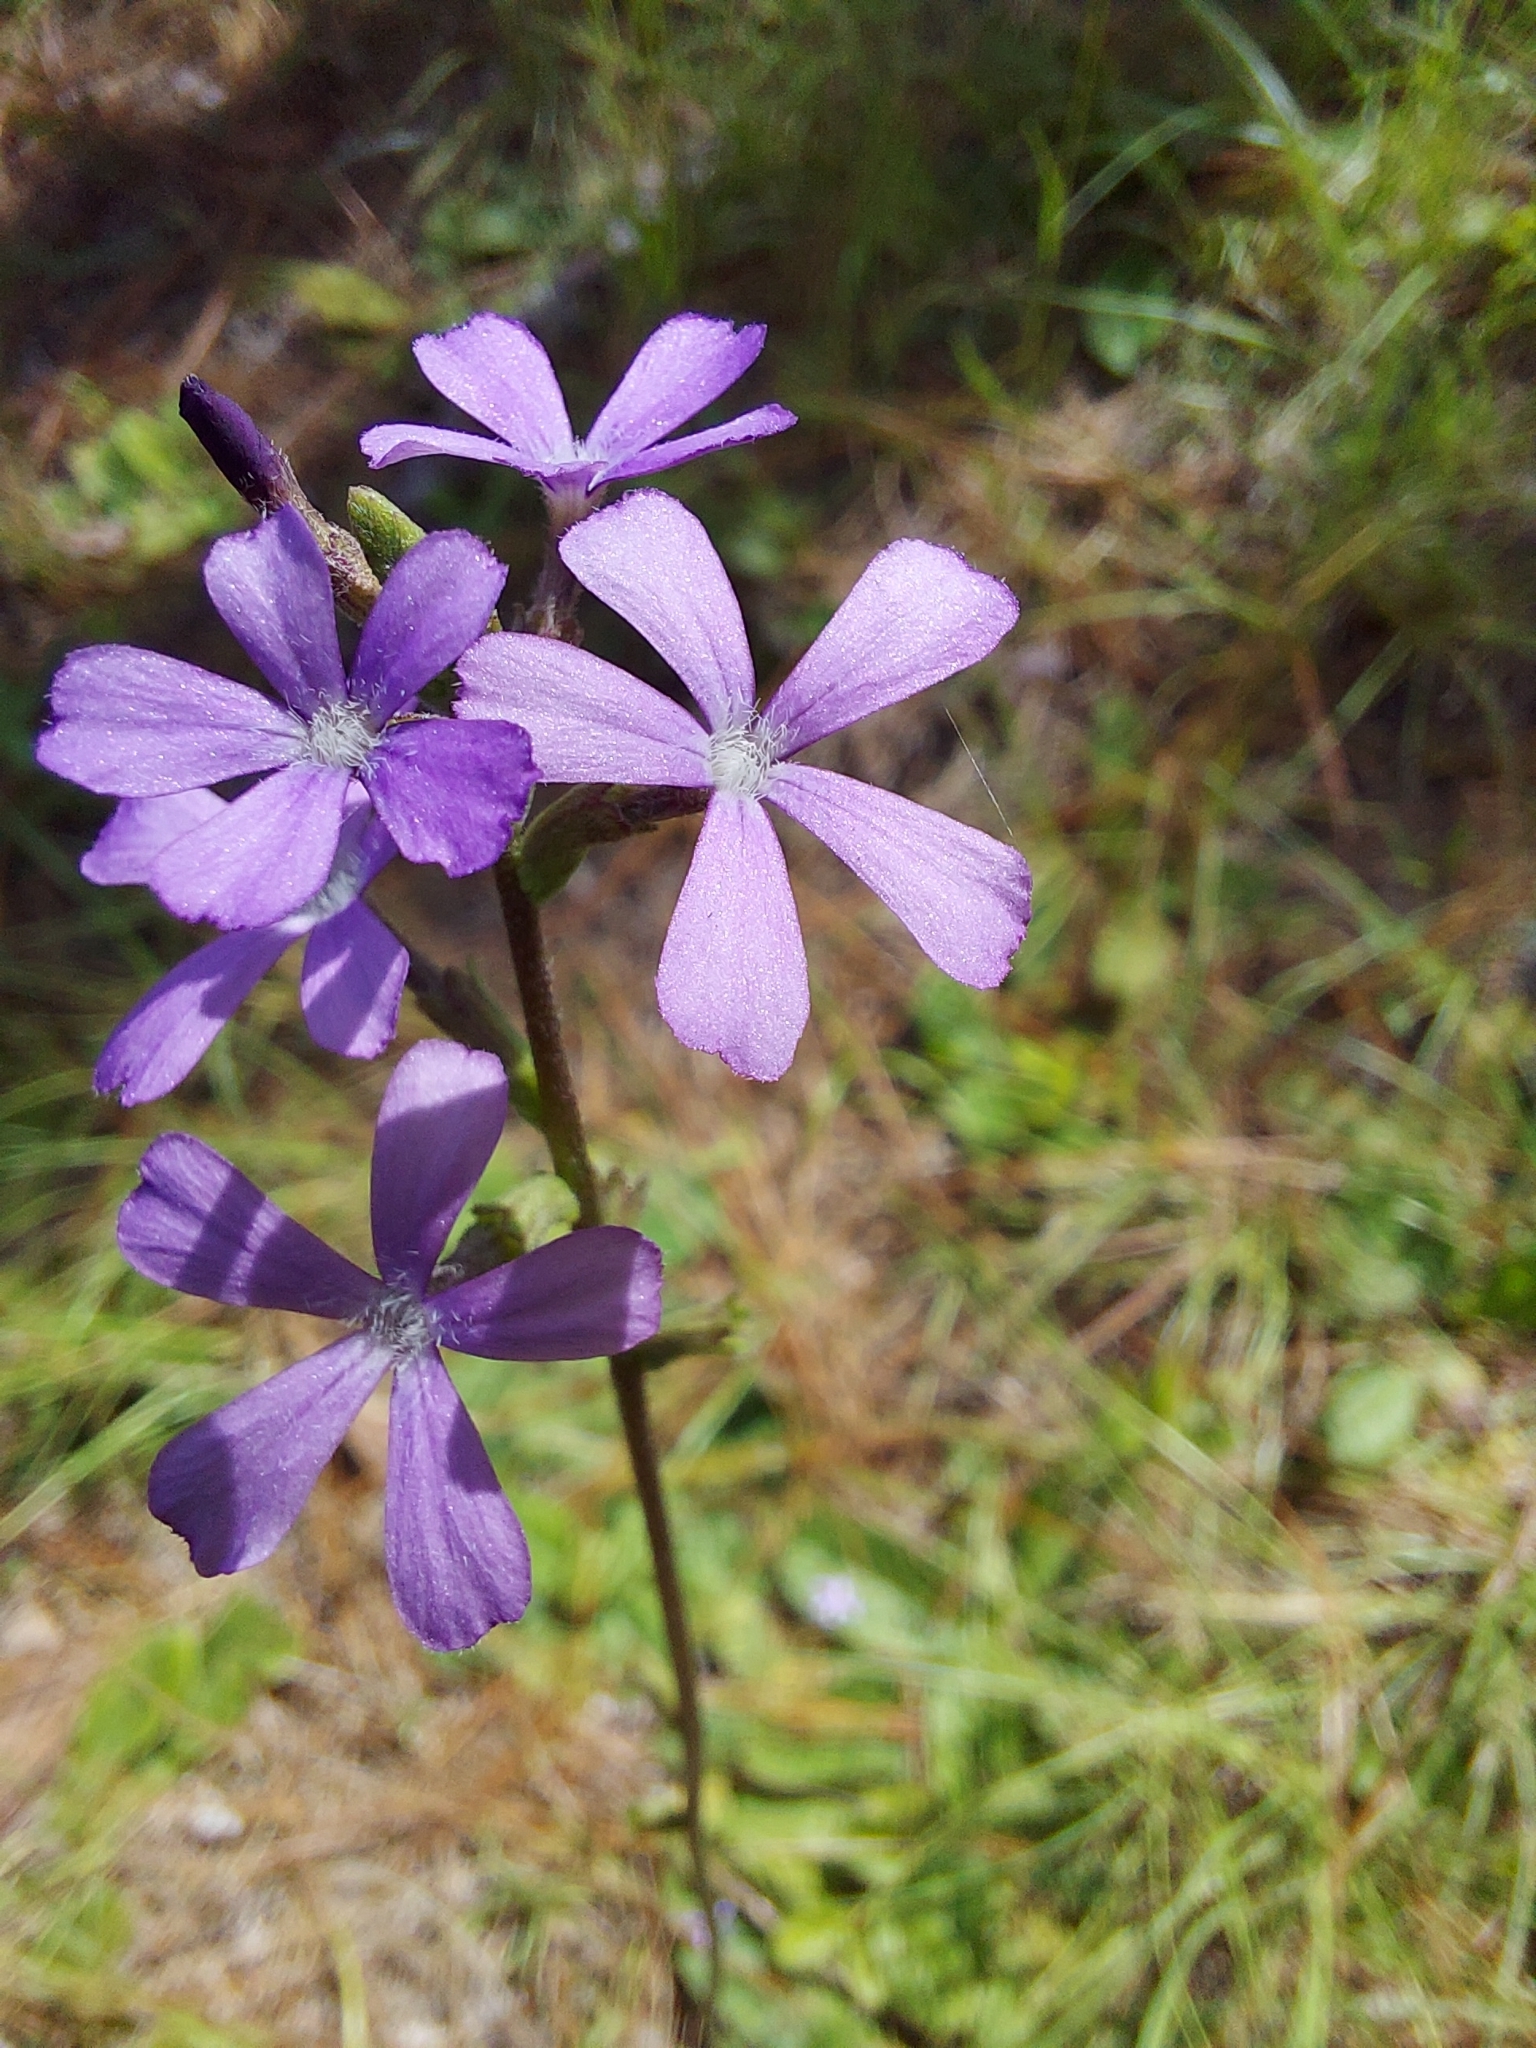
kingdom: Plantae
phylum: Tracheophyta
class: Magnoliopsida
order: Lamiales
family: Orobanchaceae
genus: Buchnera
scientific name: Buchnera floridana
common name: Florida bluehearts
